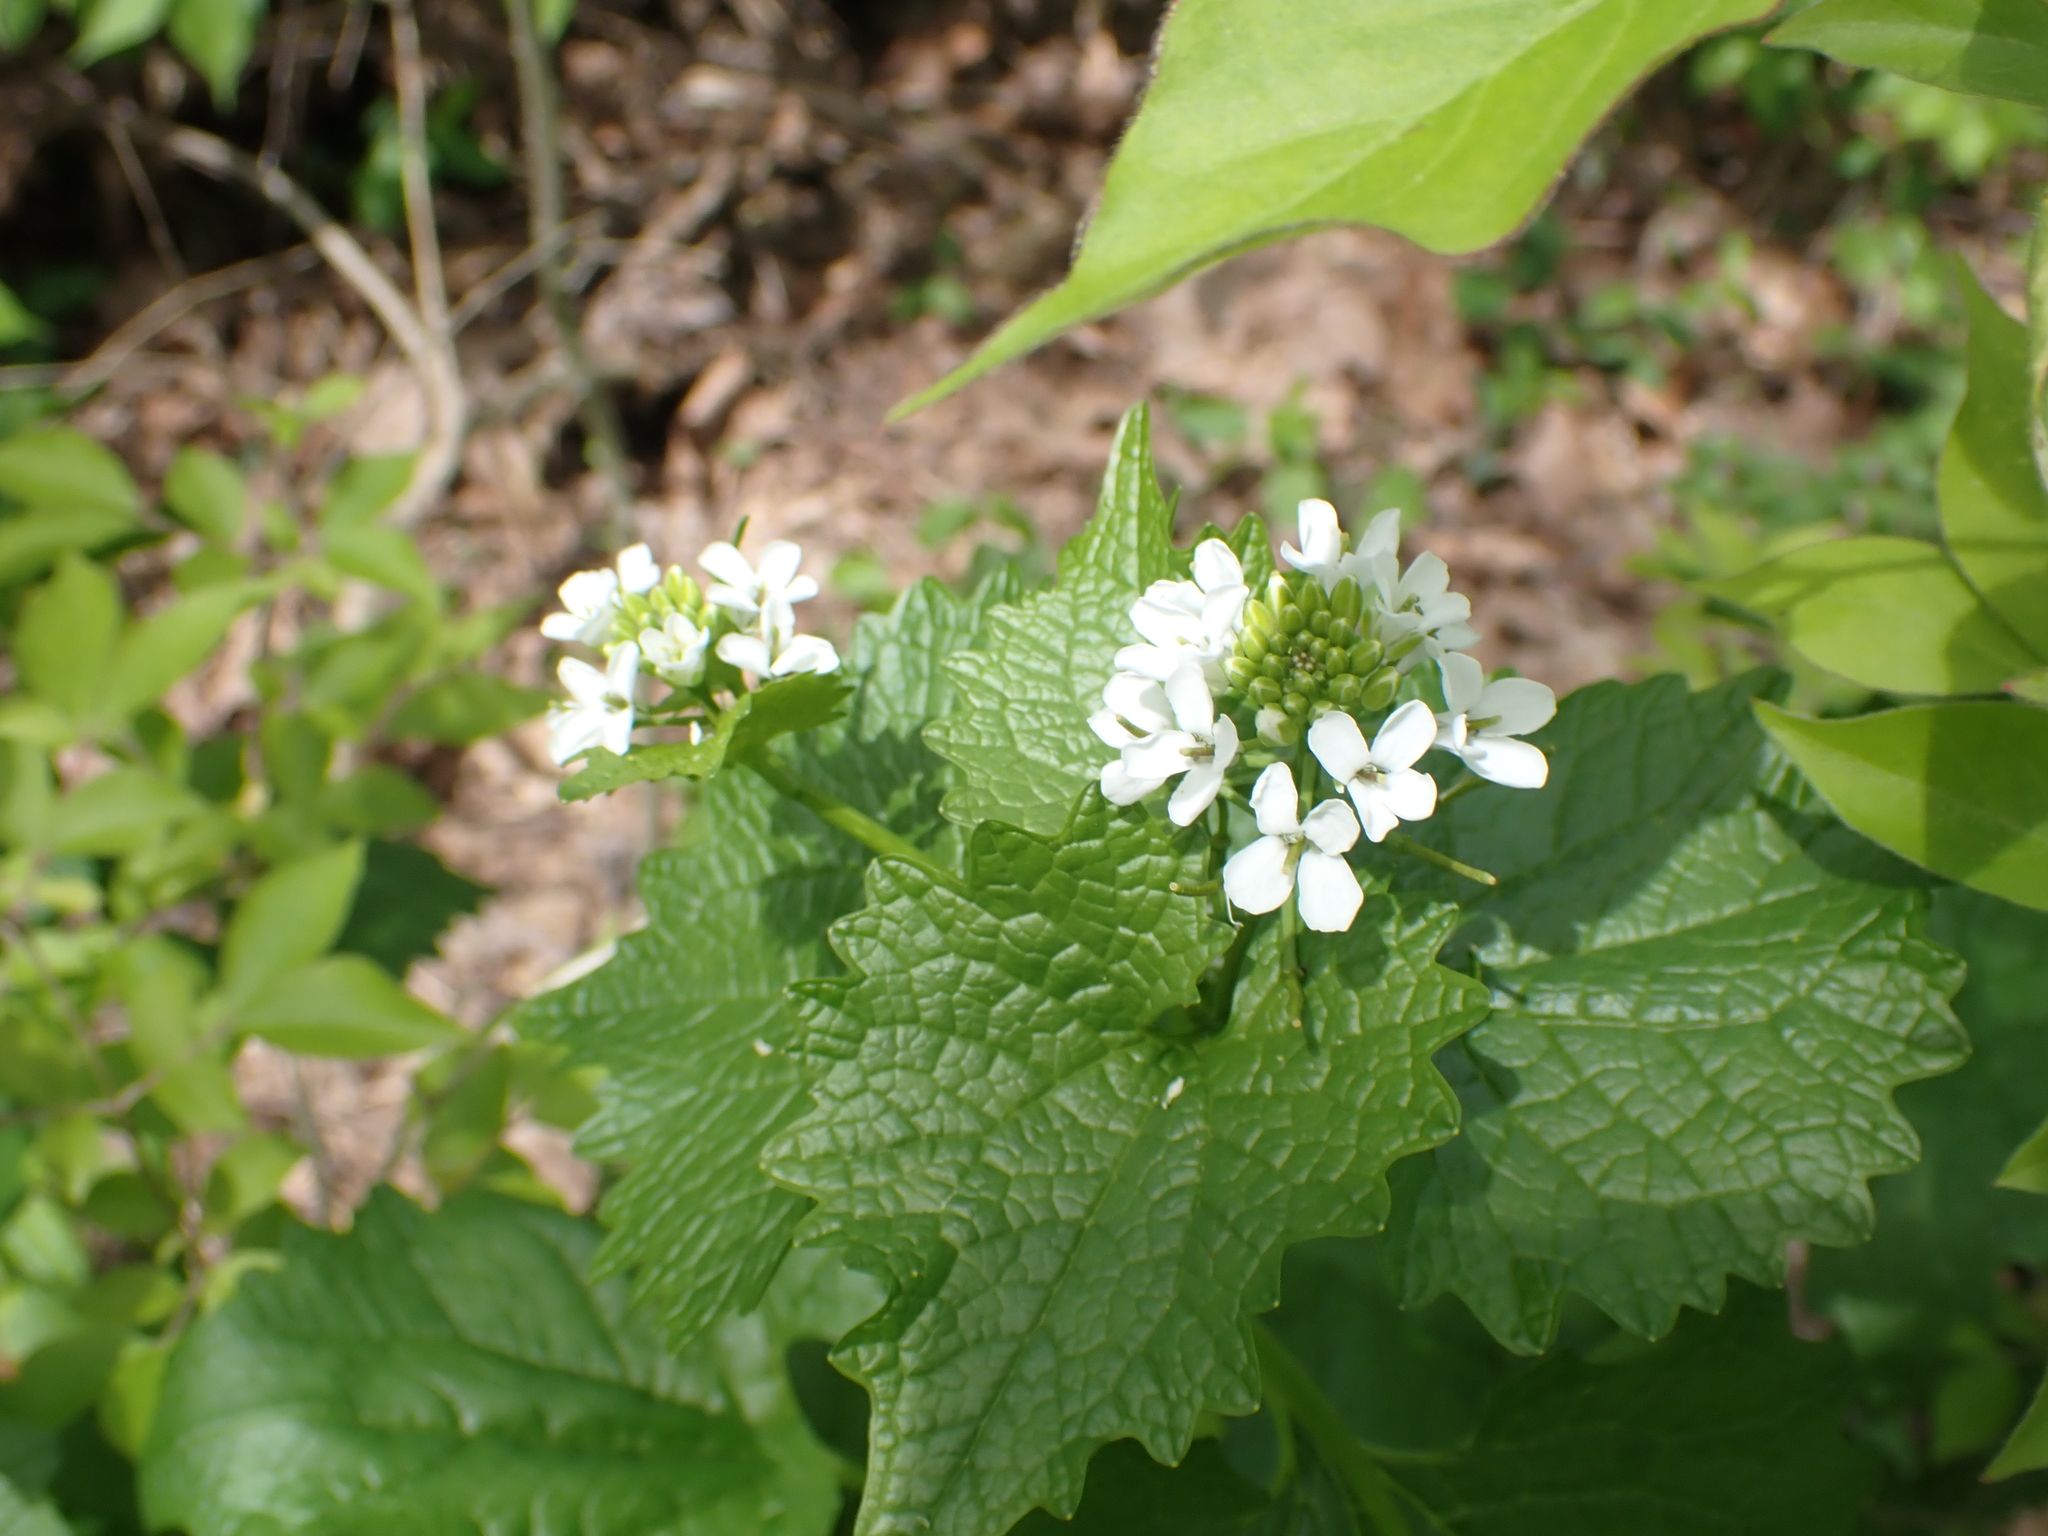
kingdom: Plantae
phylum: Tracheophyta
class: Magnoliopsida
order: Brassicales
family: Brassicaceae
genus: Alliaria
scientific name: Alliaria petiolata
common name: Garlic mustard
